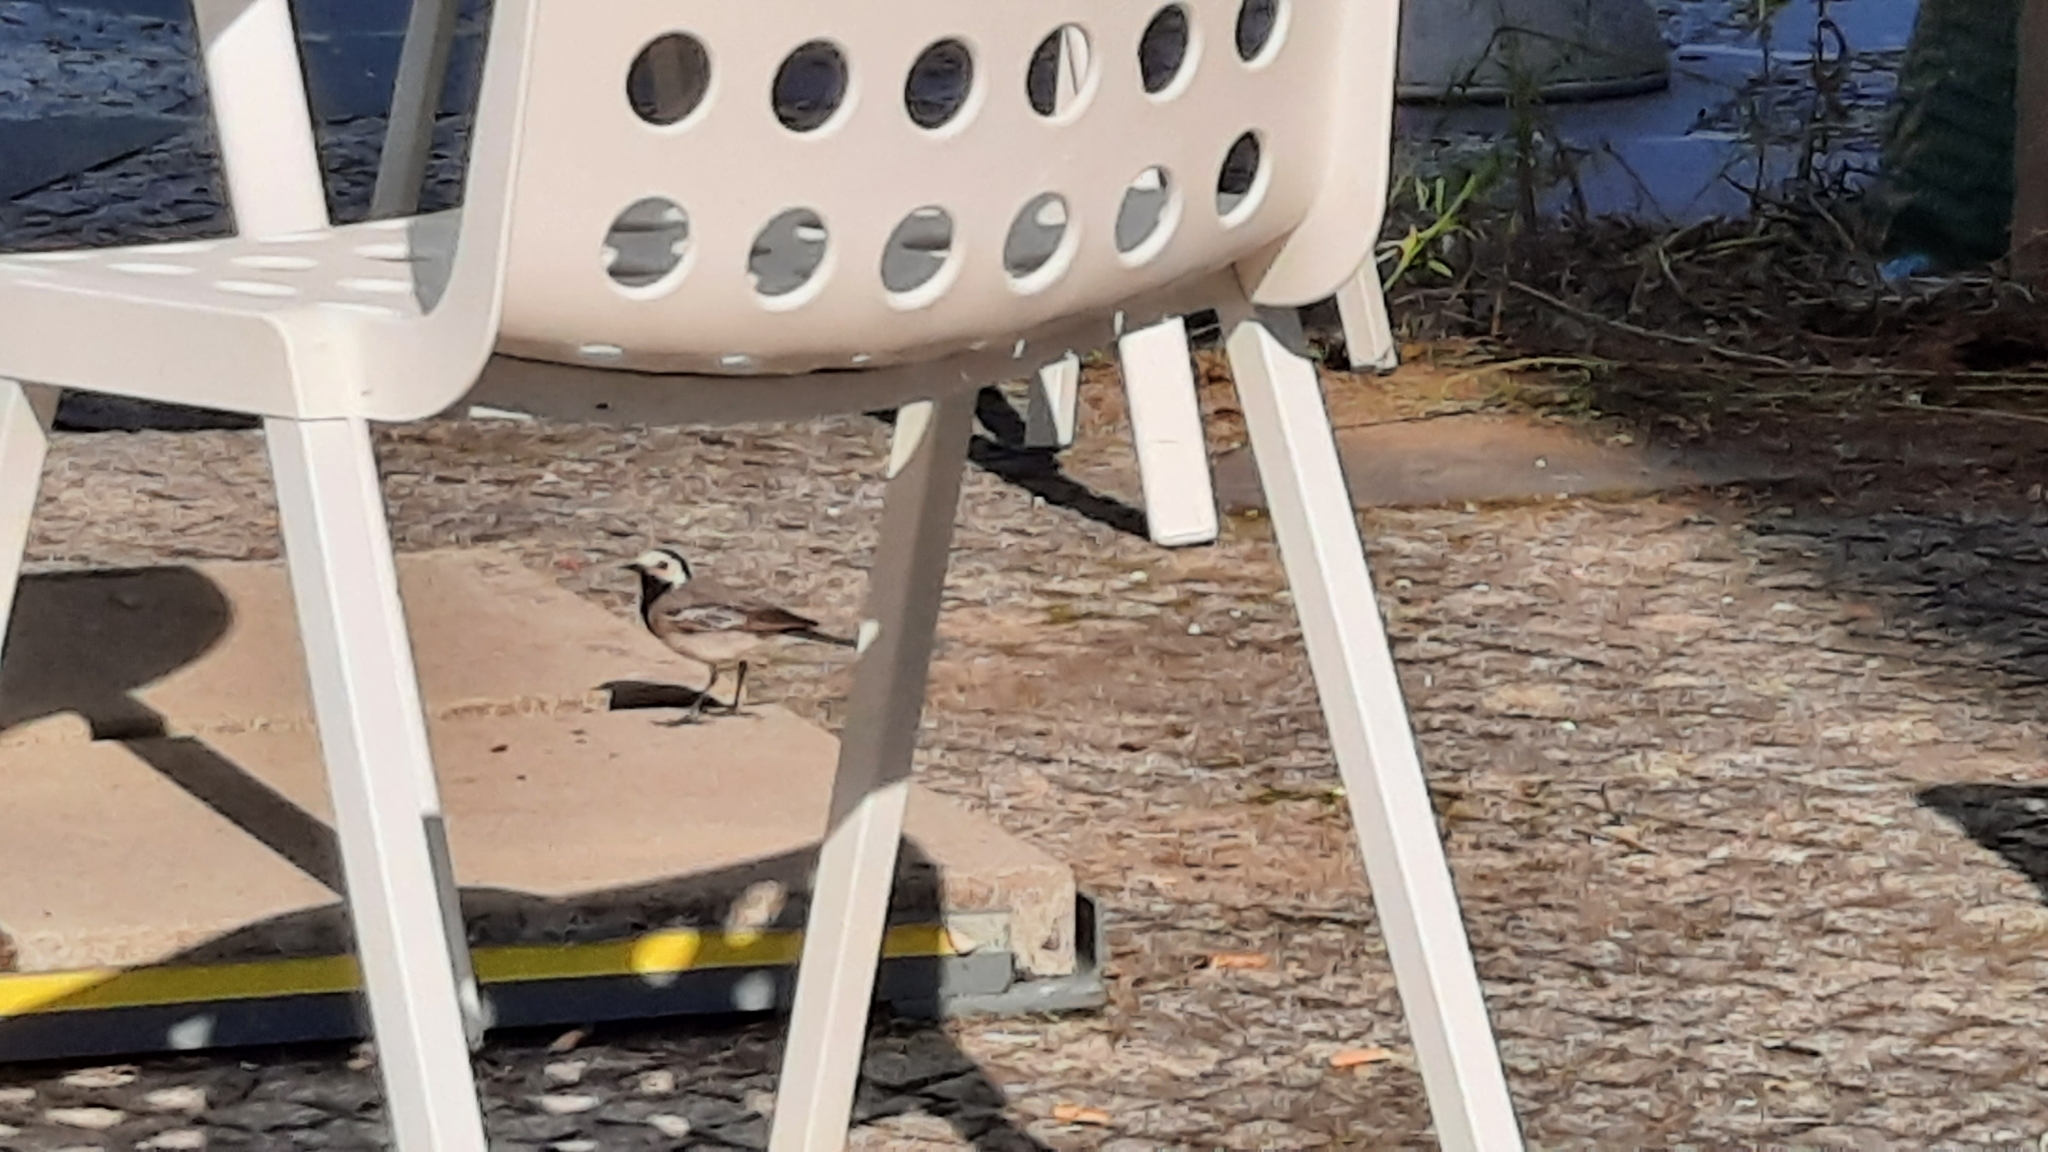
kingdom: Animalia
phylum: Chordata
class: Aves
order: Passeriformes
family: Motacillidae
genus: Motacilla
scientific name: Motacilla alba
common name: White wagtail
